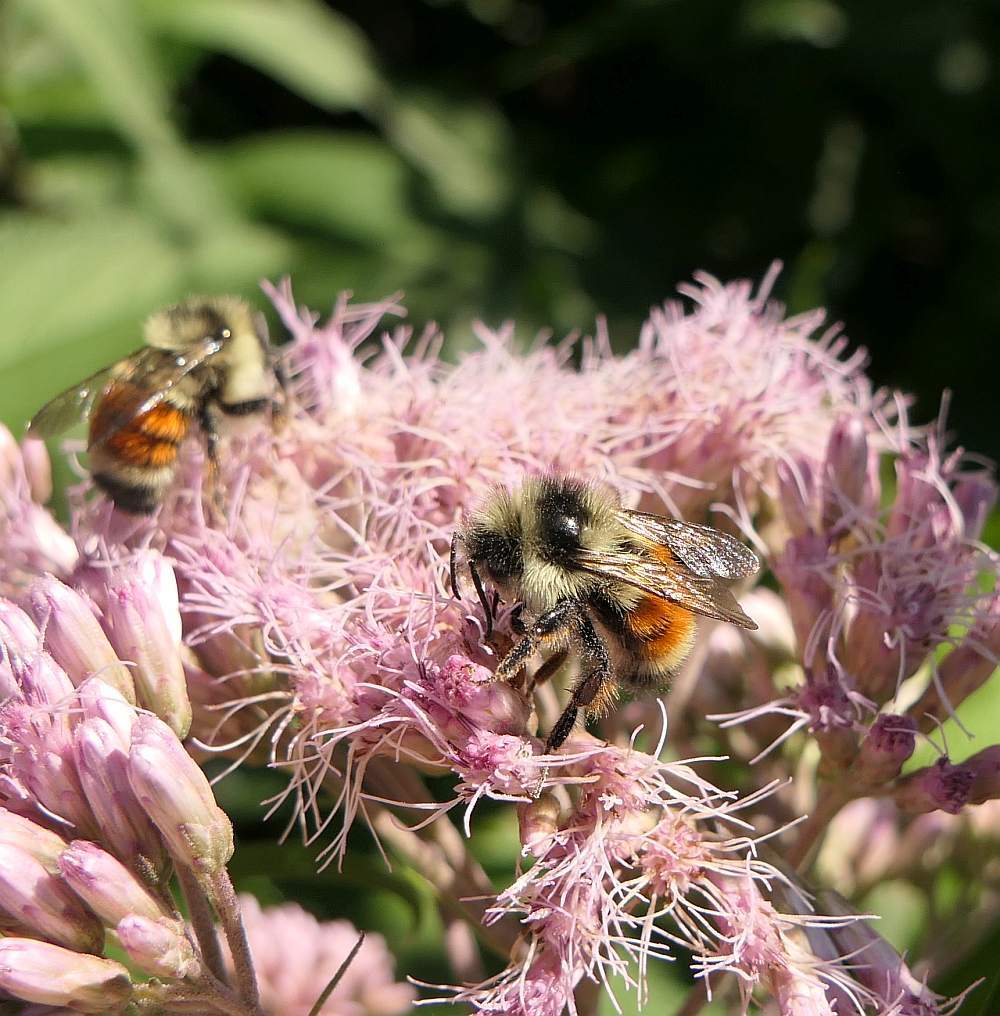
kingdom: Animalia
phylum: Arthropoda
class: Insecta
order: Hymenoptera
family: Apidae
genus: Bombus
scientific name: Bombus ternarius
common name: Tri-colored bumble bee
